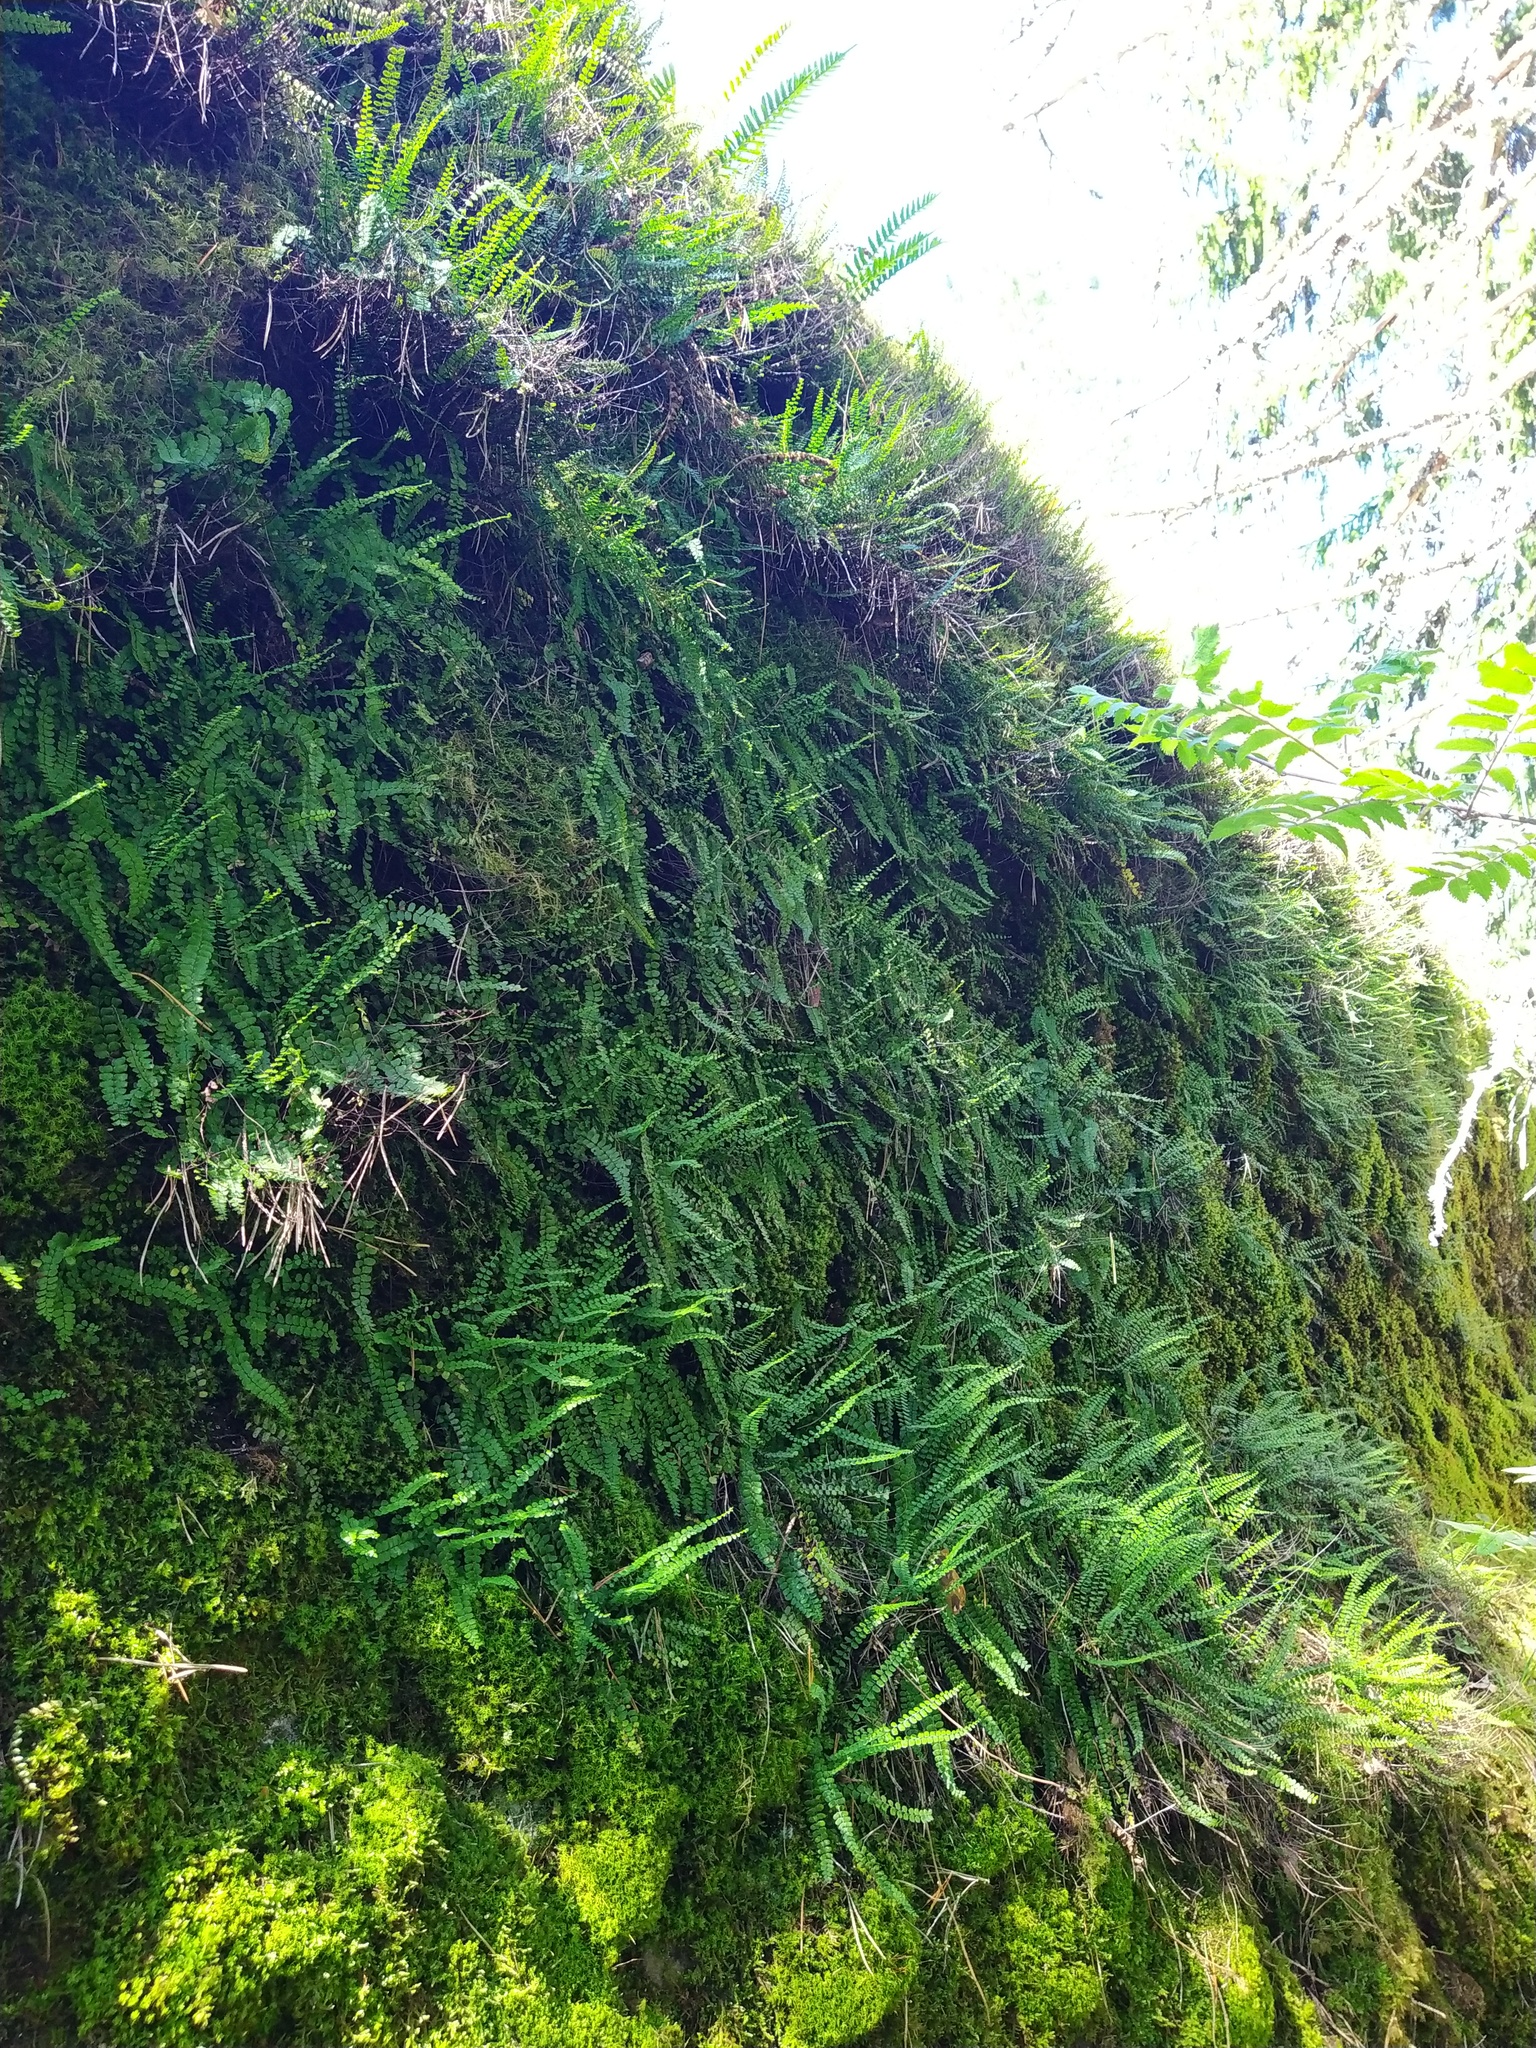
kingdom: Plantae
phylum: Tracheophyta
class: Polypodiopsida
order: Polypodiales
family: Aspleniaceae
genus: Asplenium
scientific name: Asplenium trichomanes
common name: Maidenhair spleenwort
